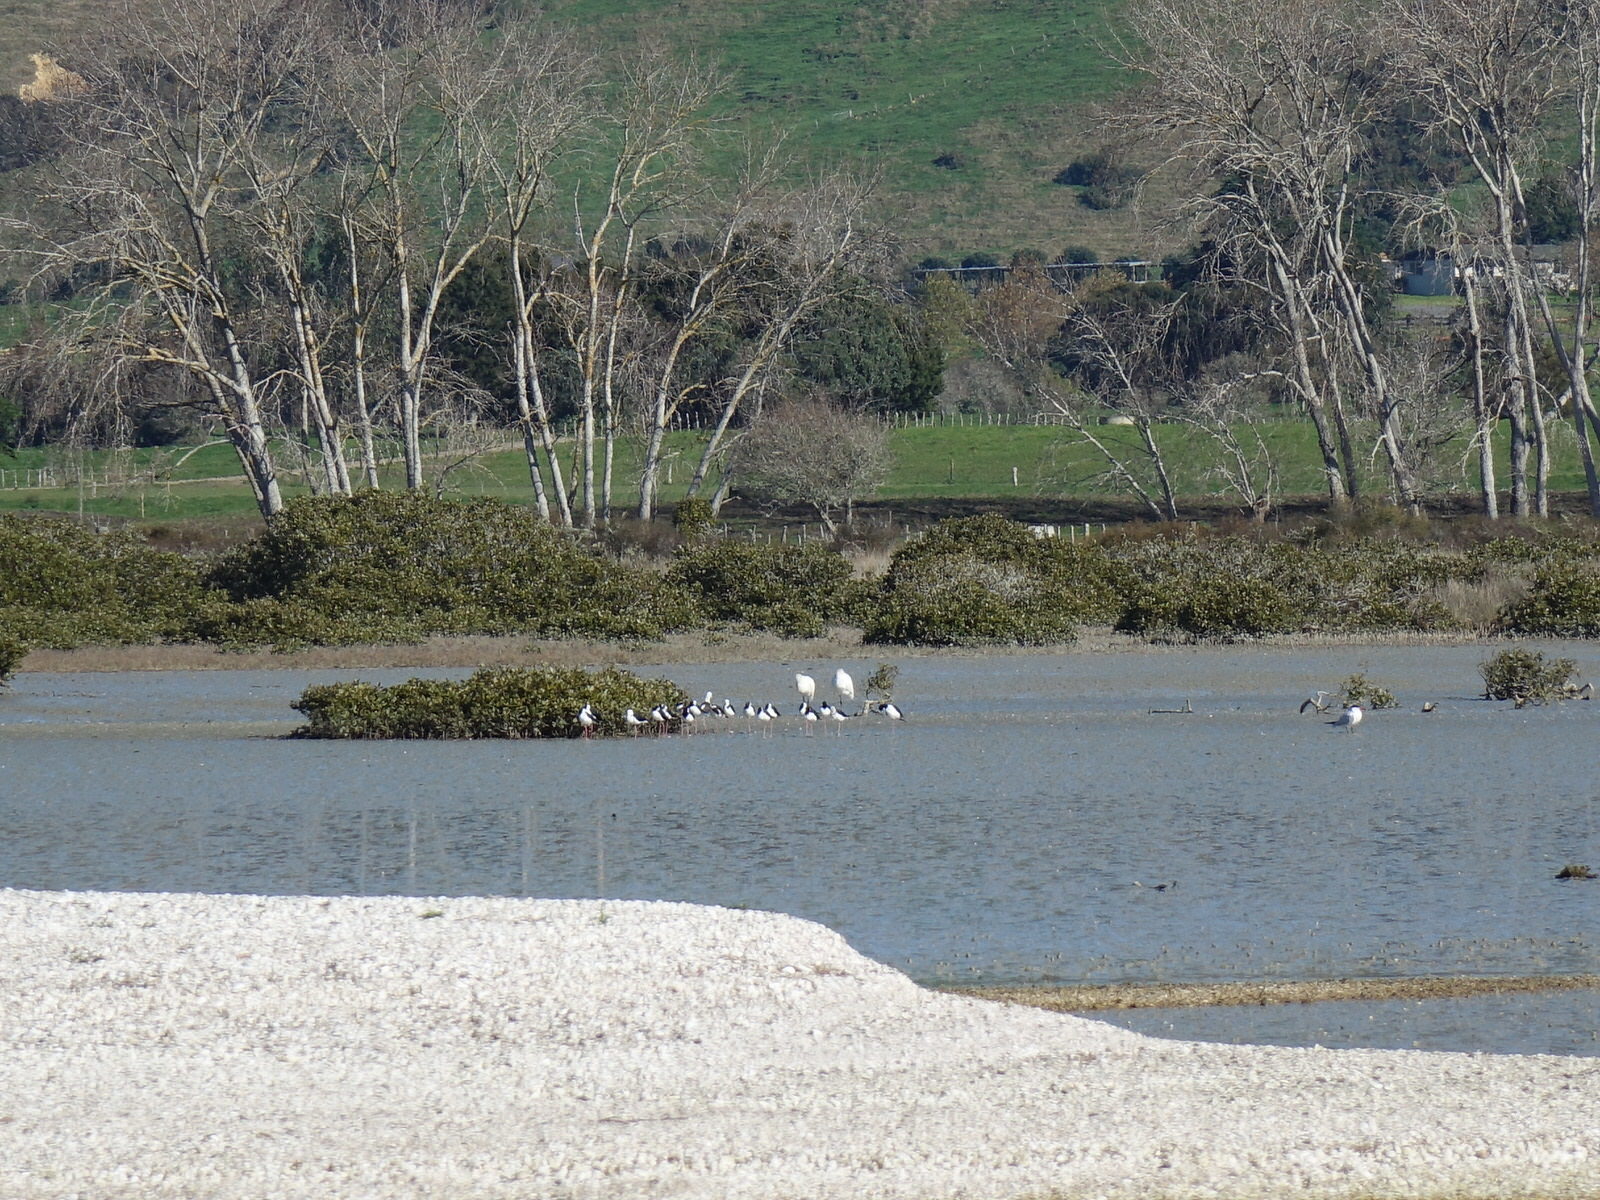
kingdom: Animalia
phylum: Chordata
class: Aves
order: Charadriiformes
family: Laridae
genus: Hydroprogne
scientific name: Hydroprogne caspia
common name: Caspian tern
